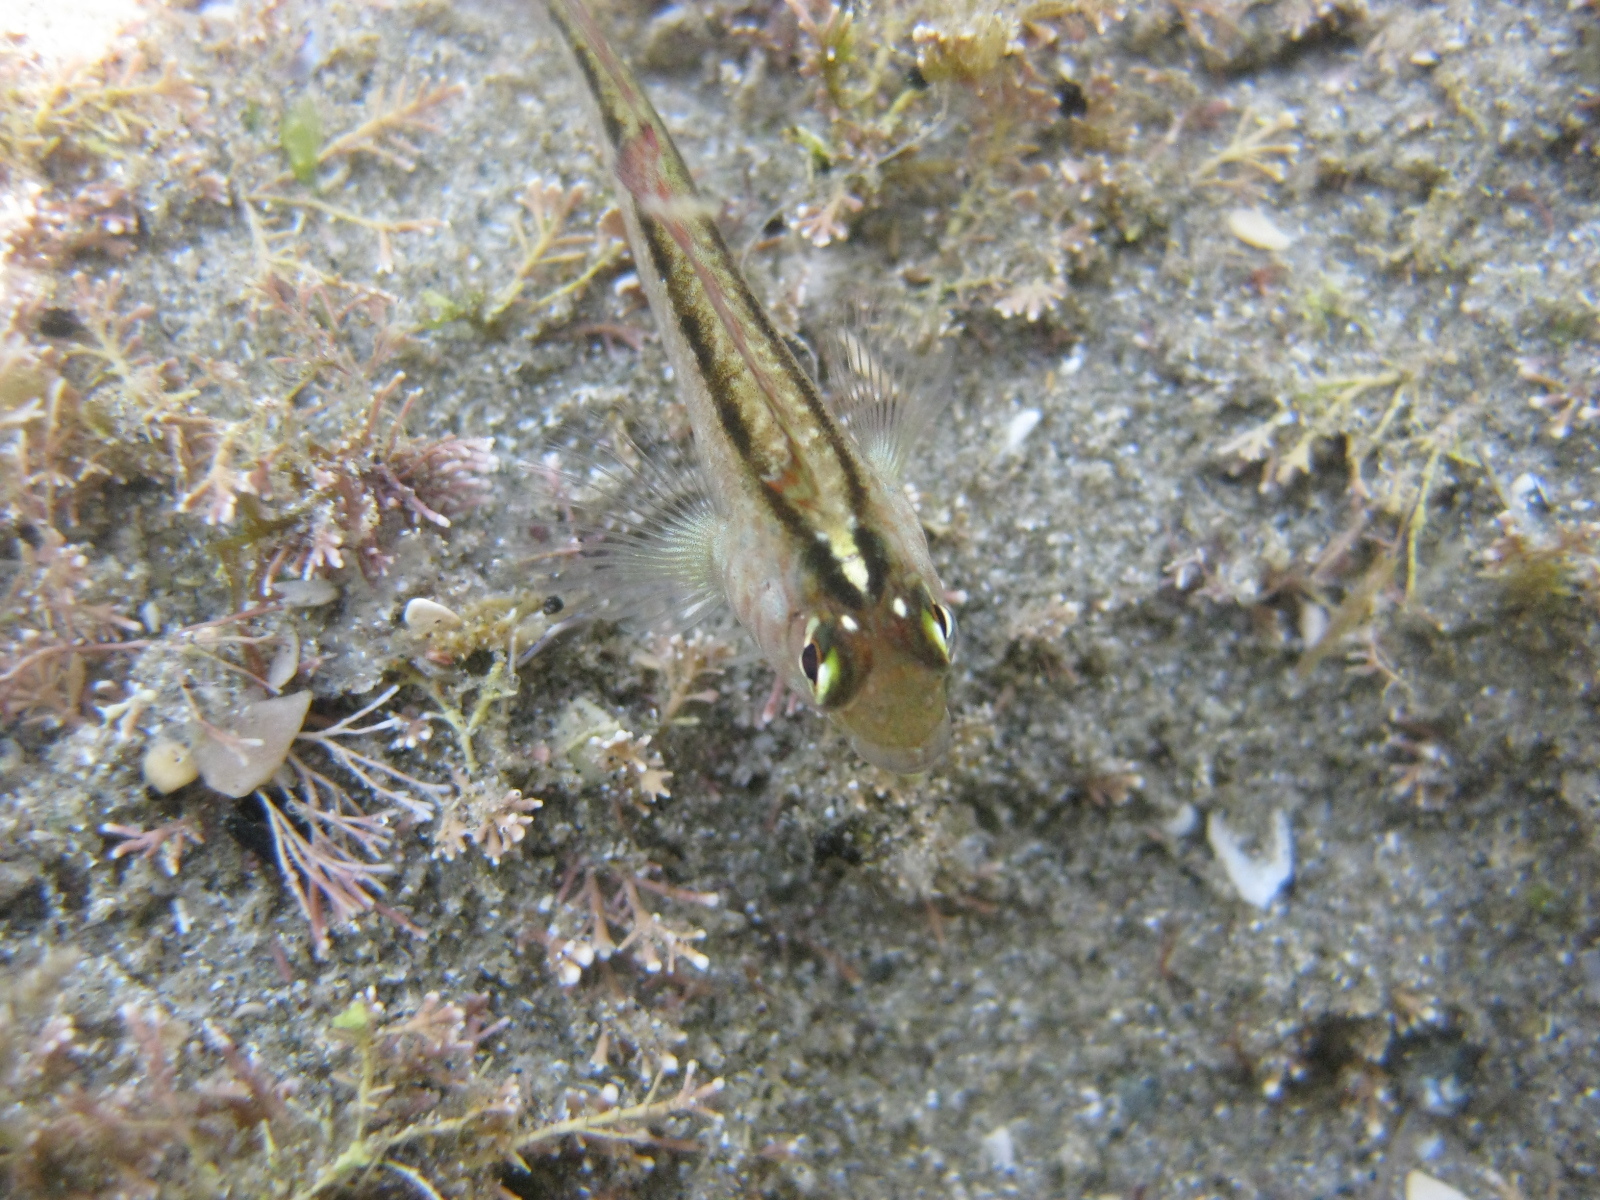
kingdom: Animalia
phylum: Chordata
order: Perciformes
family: Tripterygiidae
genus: Forsterygion
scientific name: Forsterygion lapillum
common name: Common triplefin
